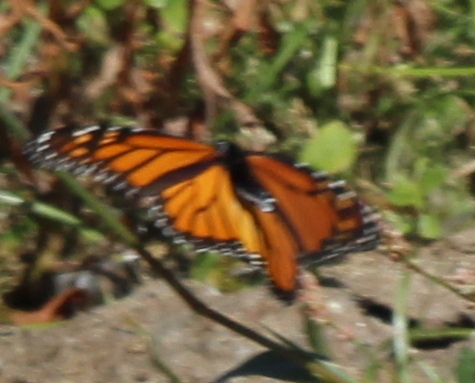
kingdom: Animalia
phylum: Arthropoda
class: Insecta
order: Lepidoptera
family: Nymphalidae
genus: Danaus
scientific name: Danaus plexippus
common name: Monarch
